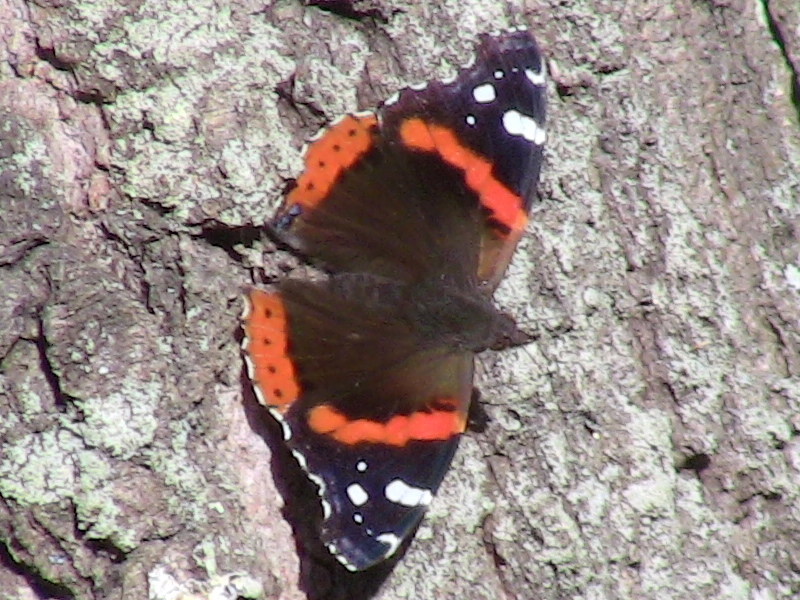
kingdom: Animalia
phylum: Arthropoda
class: Insecta
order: Lepidoptera
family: Nymphalidae
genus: Vanessa
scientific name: Vanessa atalanta
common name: Red admiral
